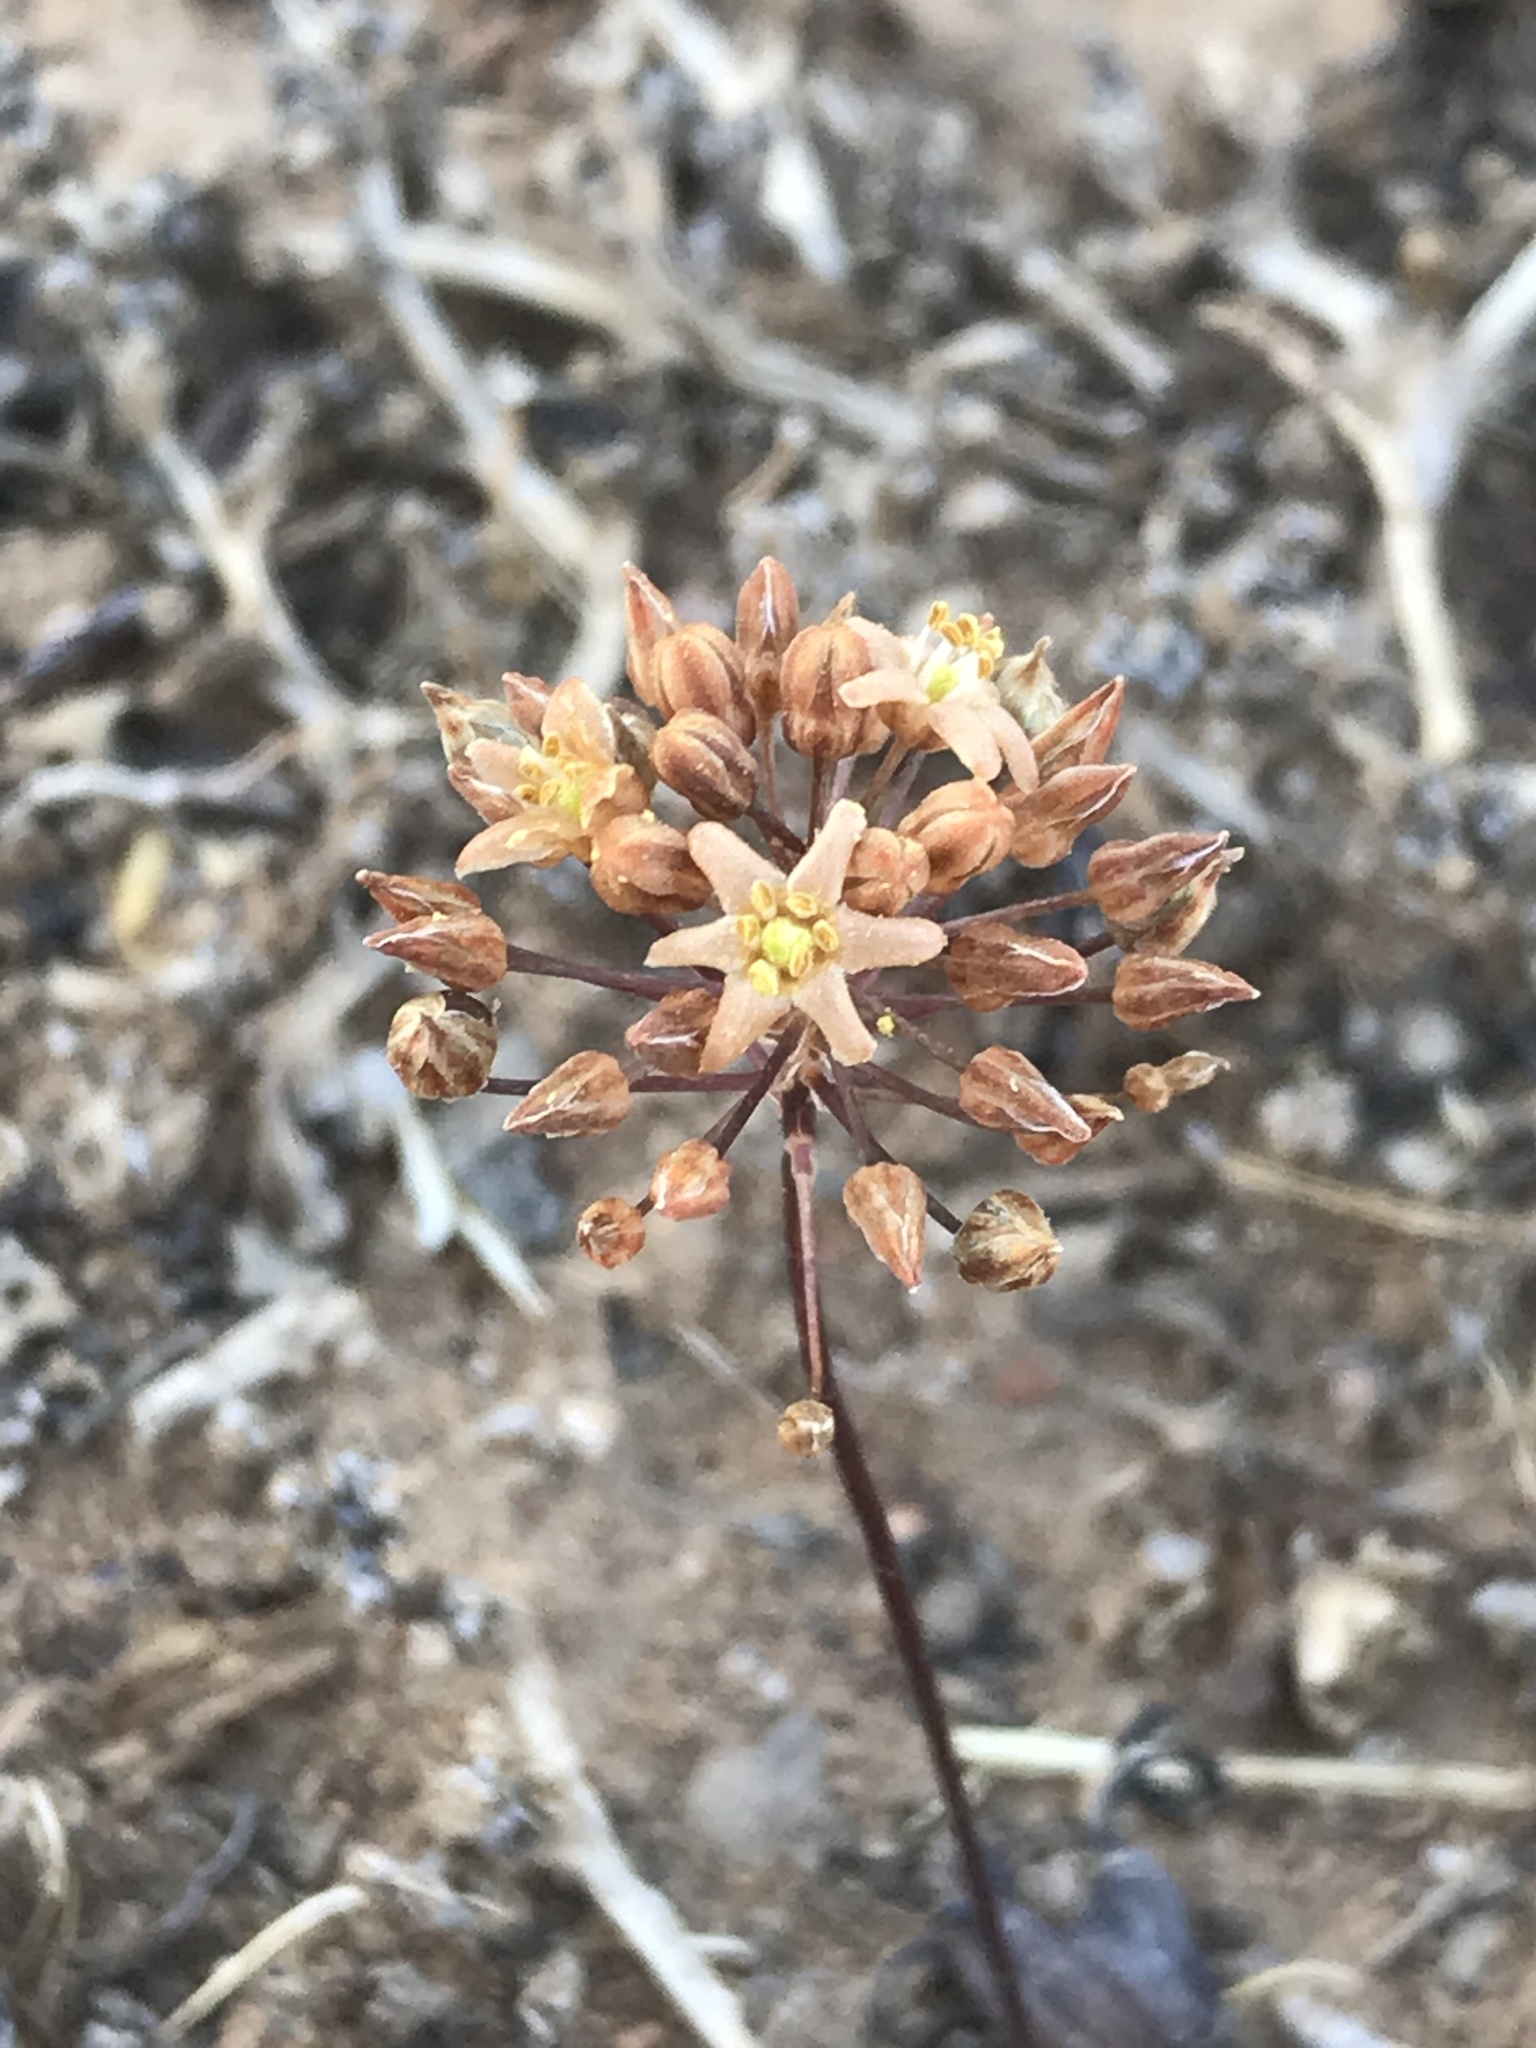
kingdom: Plantae
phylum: Tracheophyta
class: Liliopsida
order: Asparagales
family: Asparagaceae
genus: Austronea
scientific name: Austronea pulchromarginata
